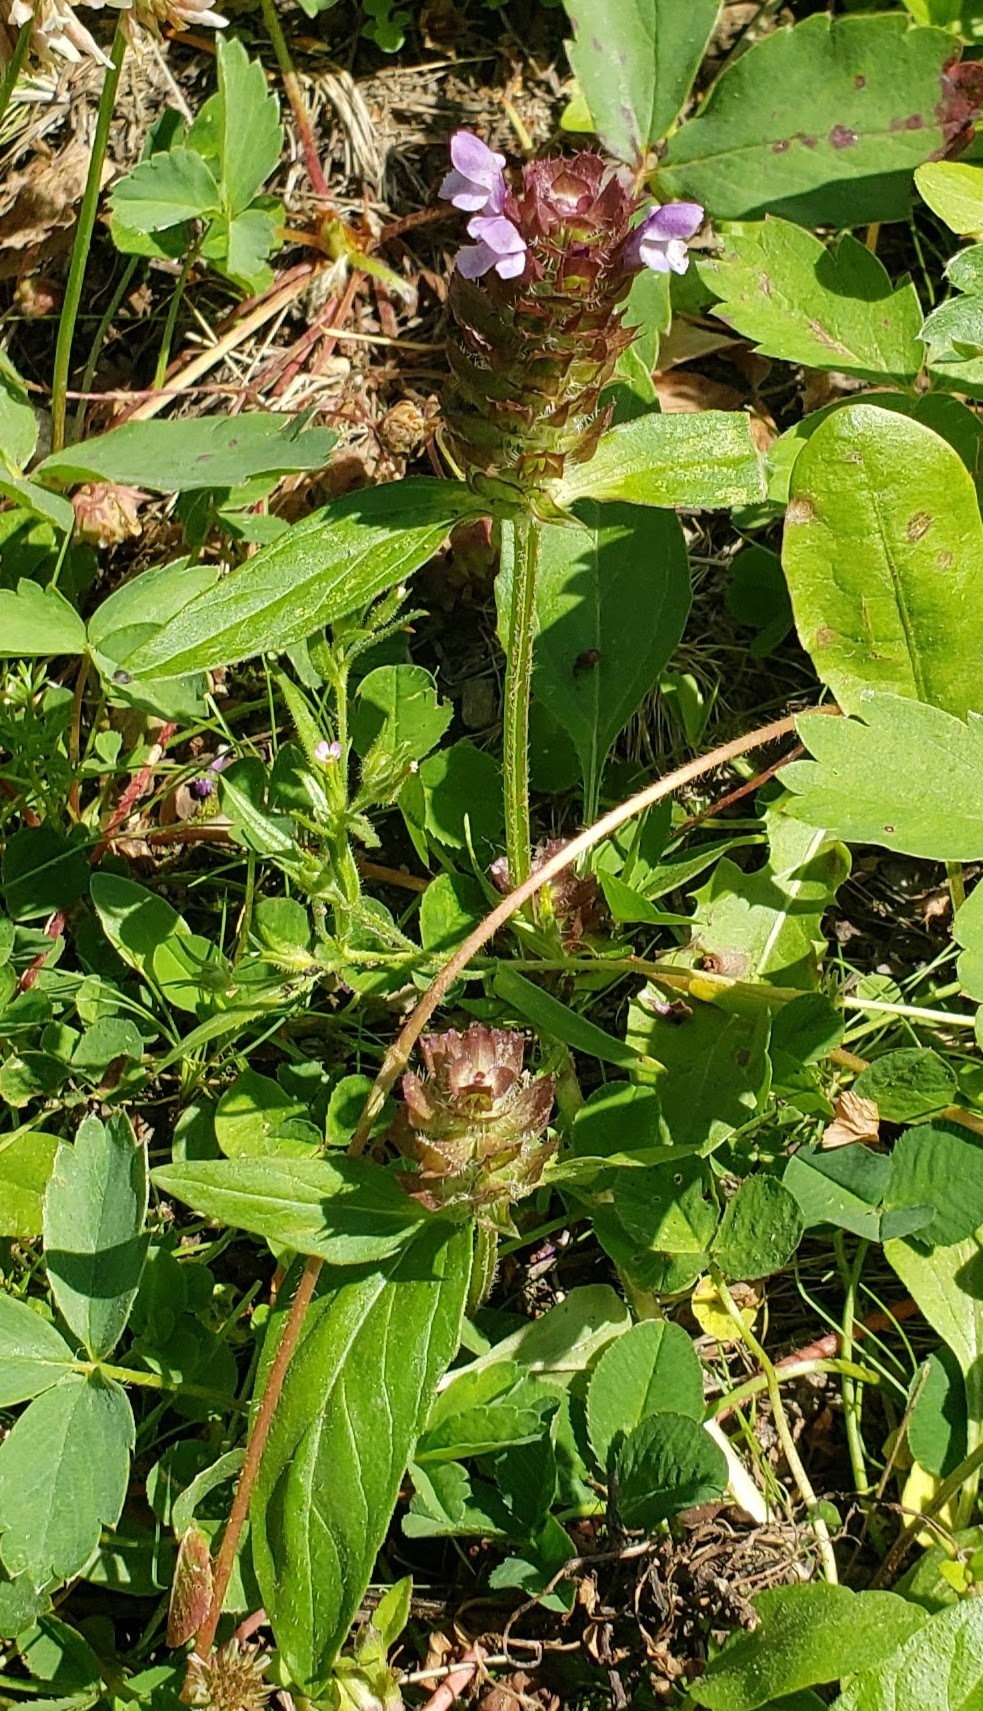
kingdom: Plantae
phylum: Tracheophyta
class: Magnoliopsida
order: Lamiales
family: Lamiaceae
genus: Prunella
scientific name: Prunella vulgaris
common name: Heal-all
